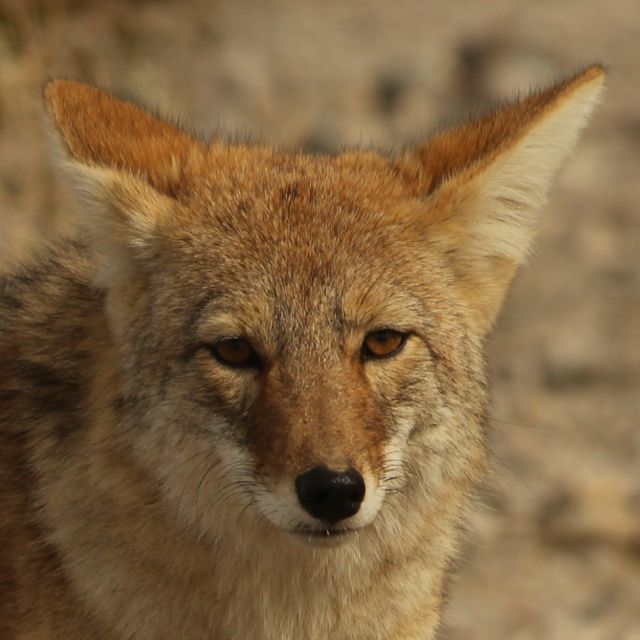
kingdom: Animalia
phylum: Chordata
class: Mammalia
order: Carnivora
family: Canidae
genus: Canis
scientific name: Canis latrans
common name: Coyote
